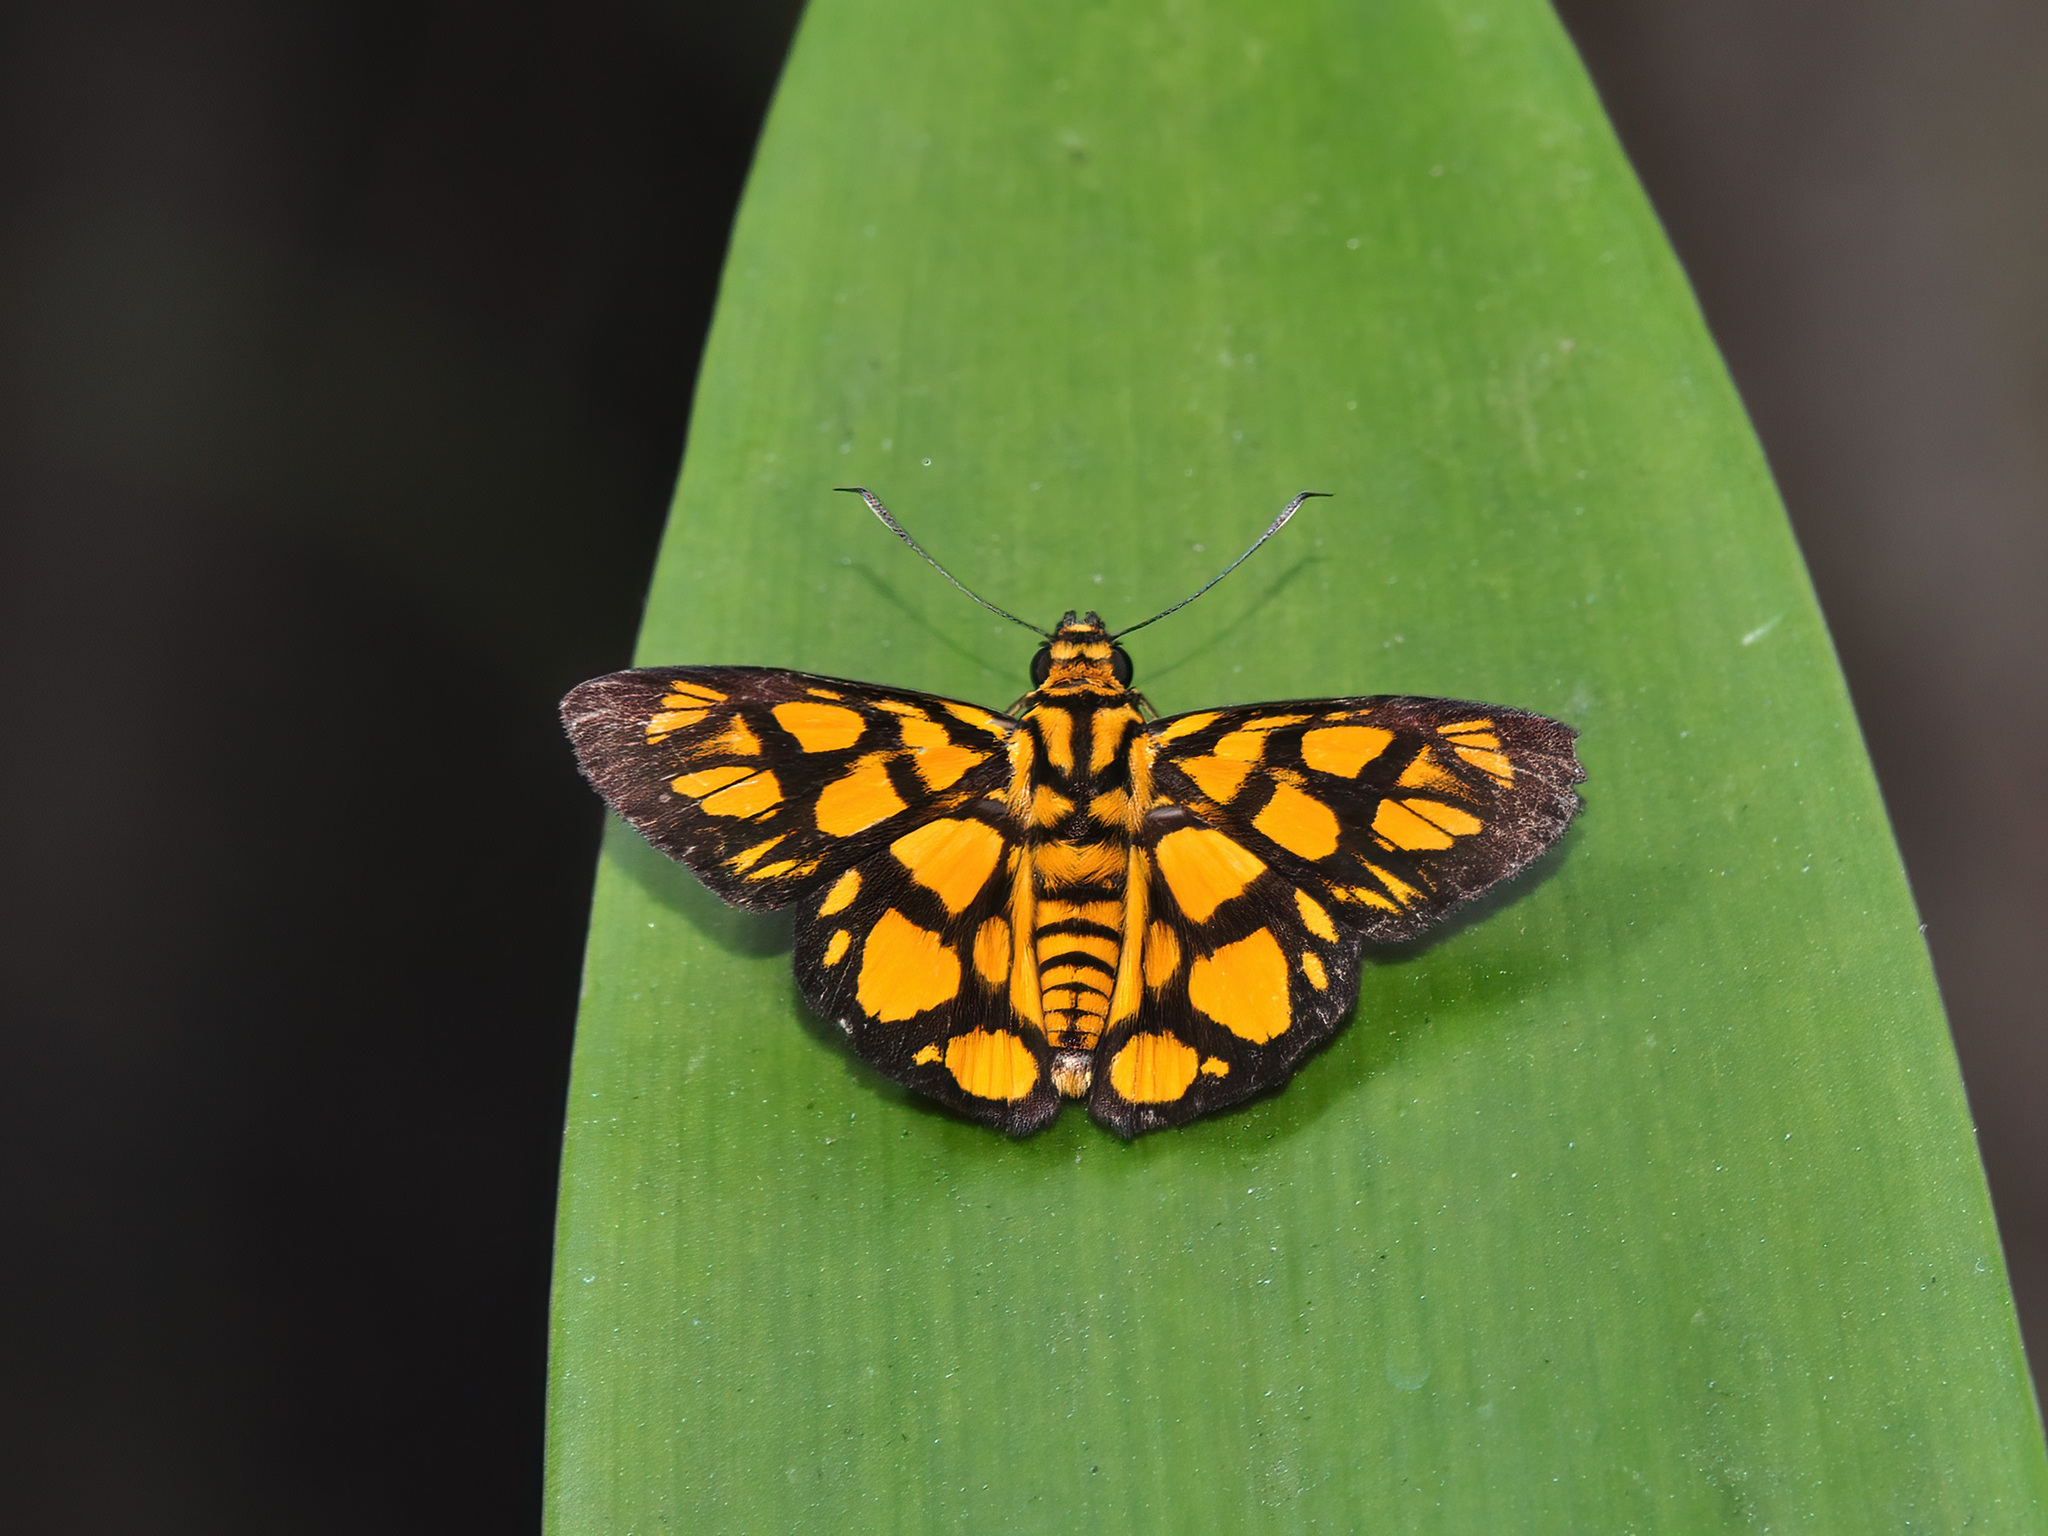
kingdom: Animalia
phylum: Arthropoda
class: Insecta
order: Lepidoptera
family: Hesperiidae
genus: Odina
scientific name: Odina hieroglyphica
